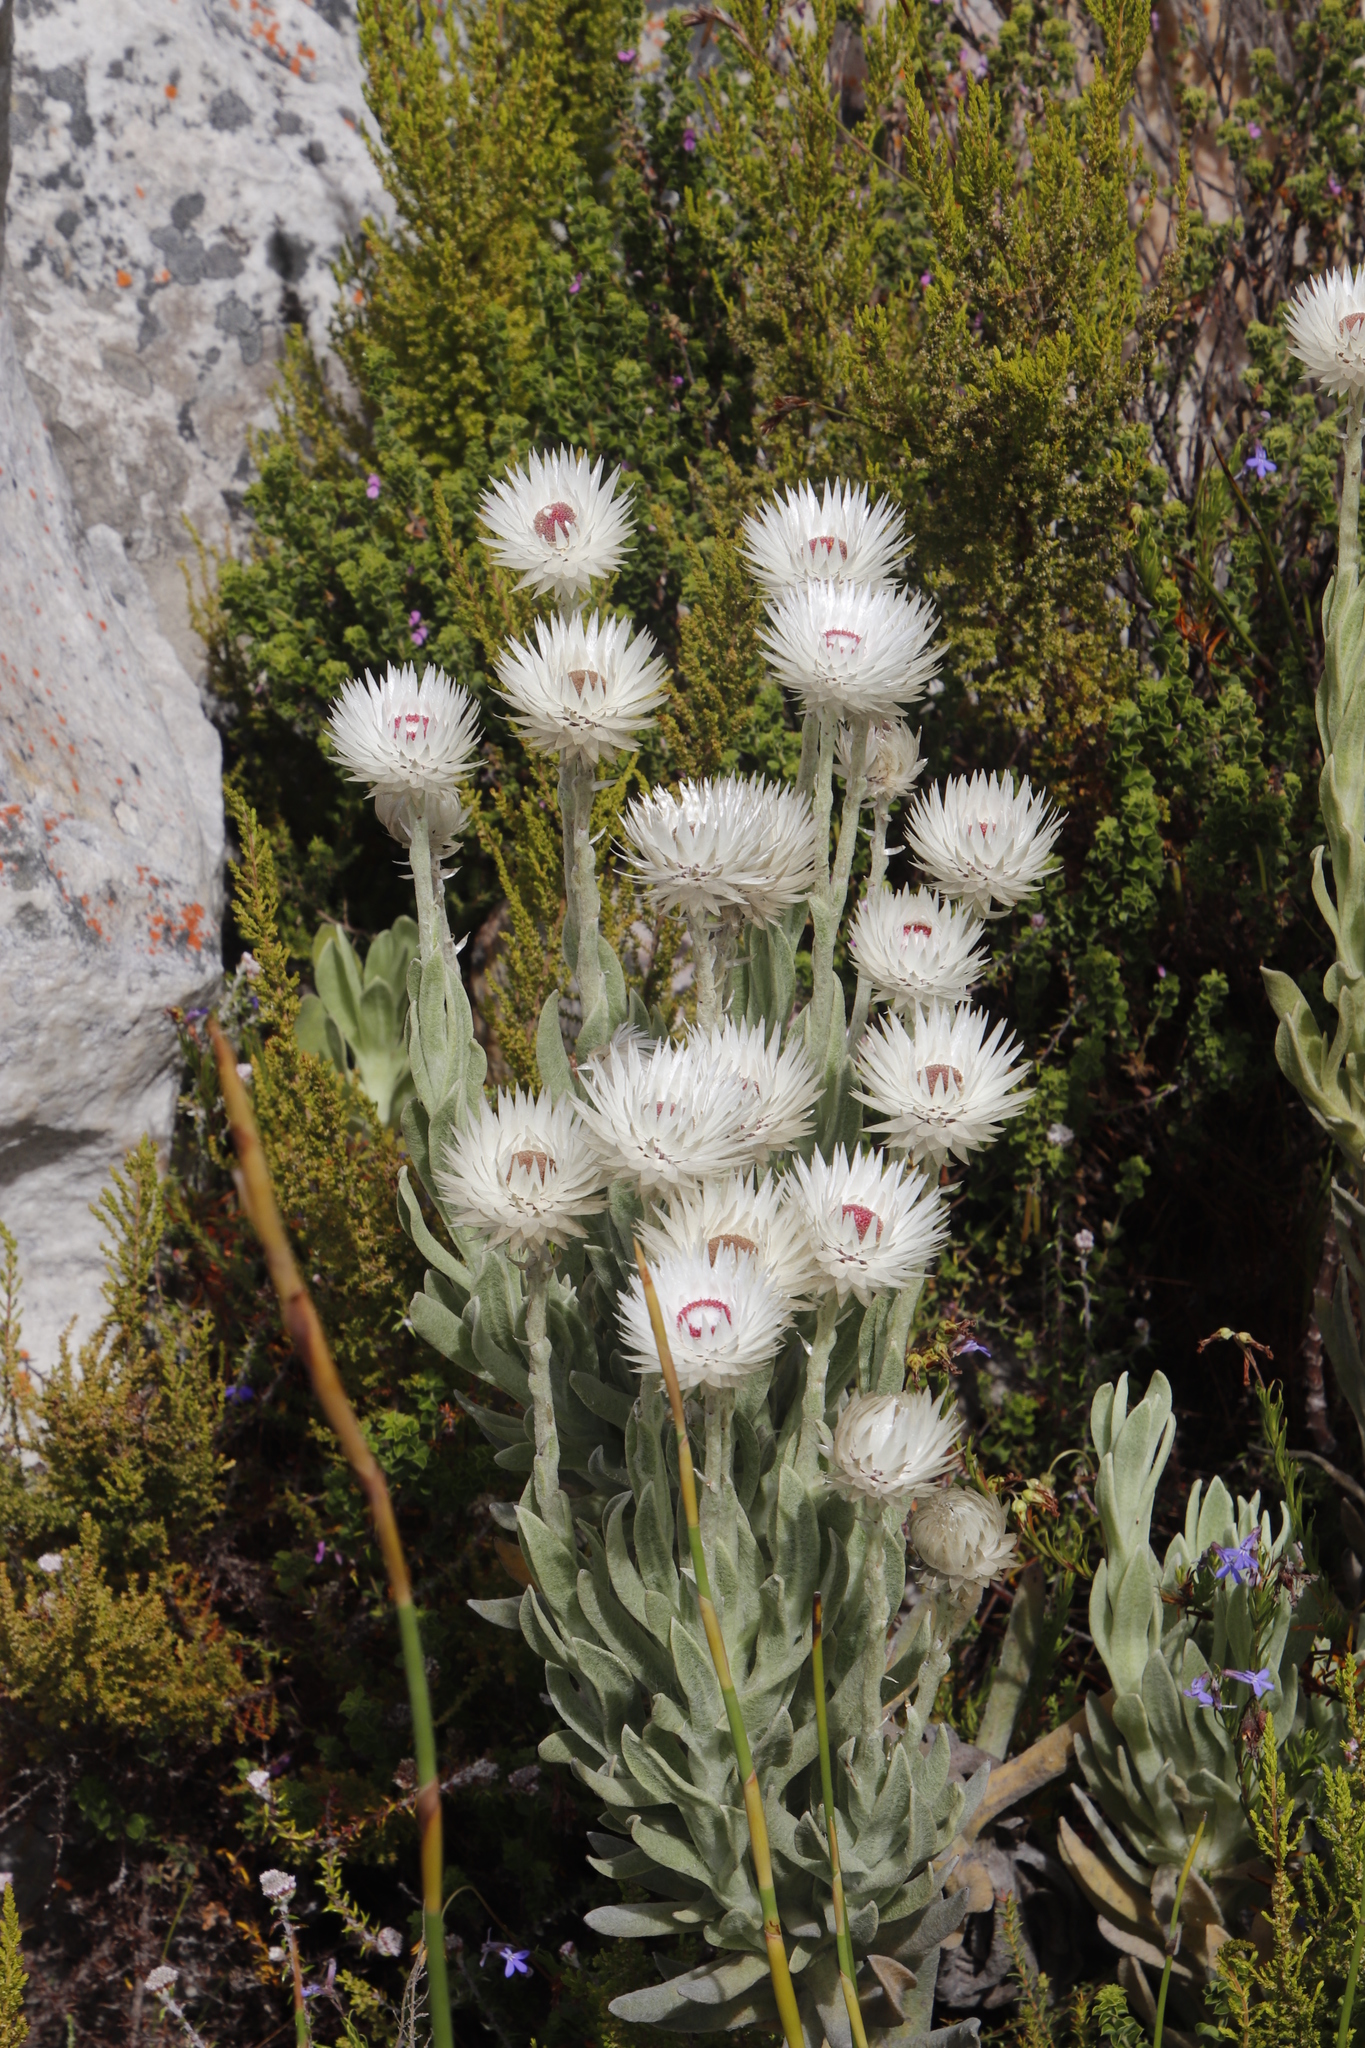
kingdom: Plantae
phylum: Tracheophyta
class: Magnoliopsida
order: Asterales
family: Asteraceae
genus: Syncarpha
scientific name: Syncarpha vestita
